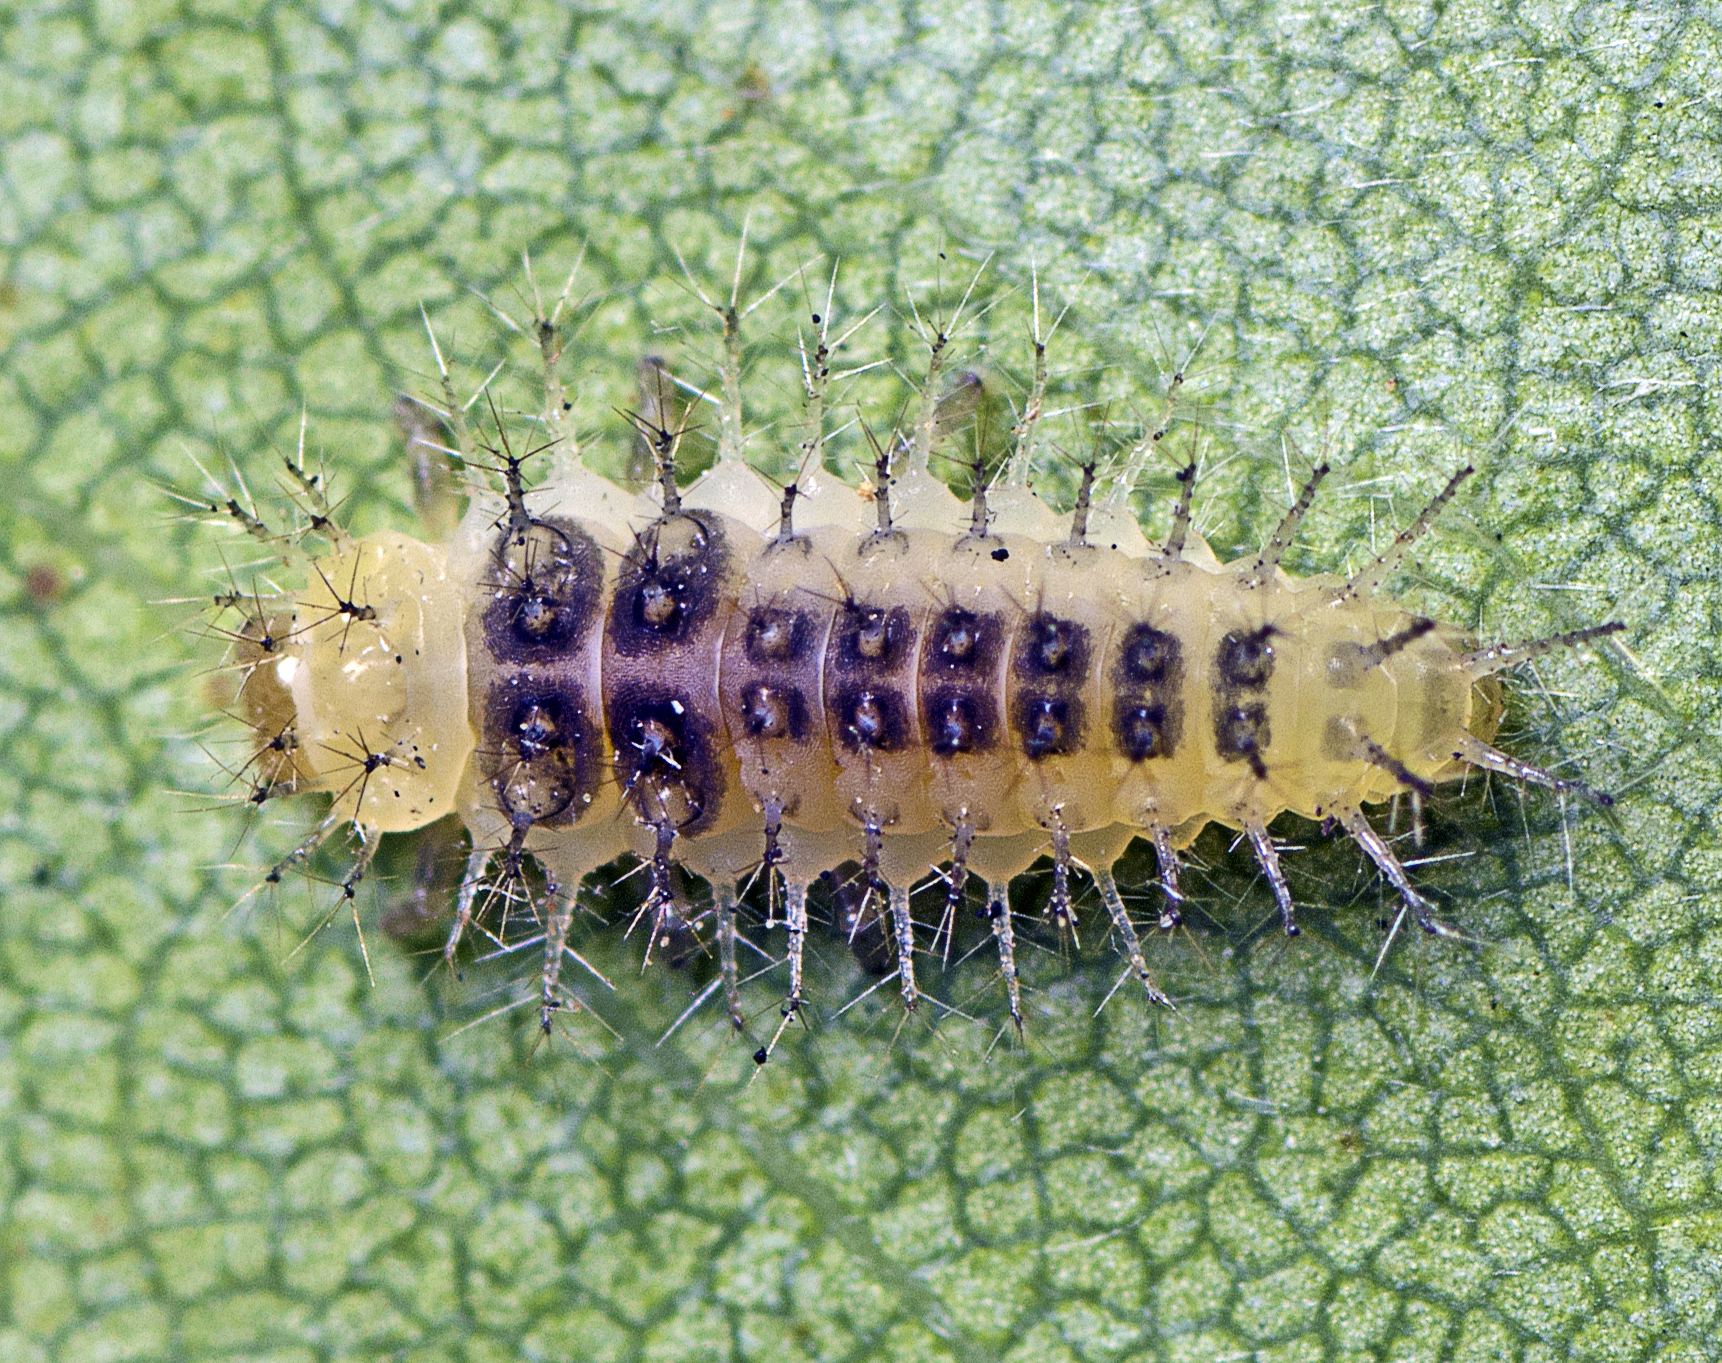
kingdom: Animalia
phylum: Arthropoda
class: Insecta
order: Coleoptera
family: Coccinellidae
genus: Halmus
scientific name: Halmus chalybeus
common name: Steel blue ladybird beetle
